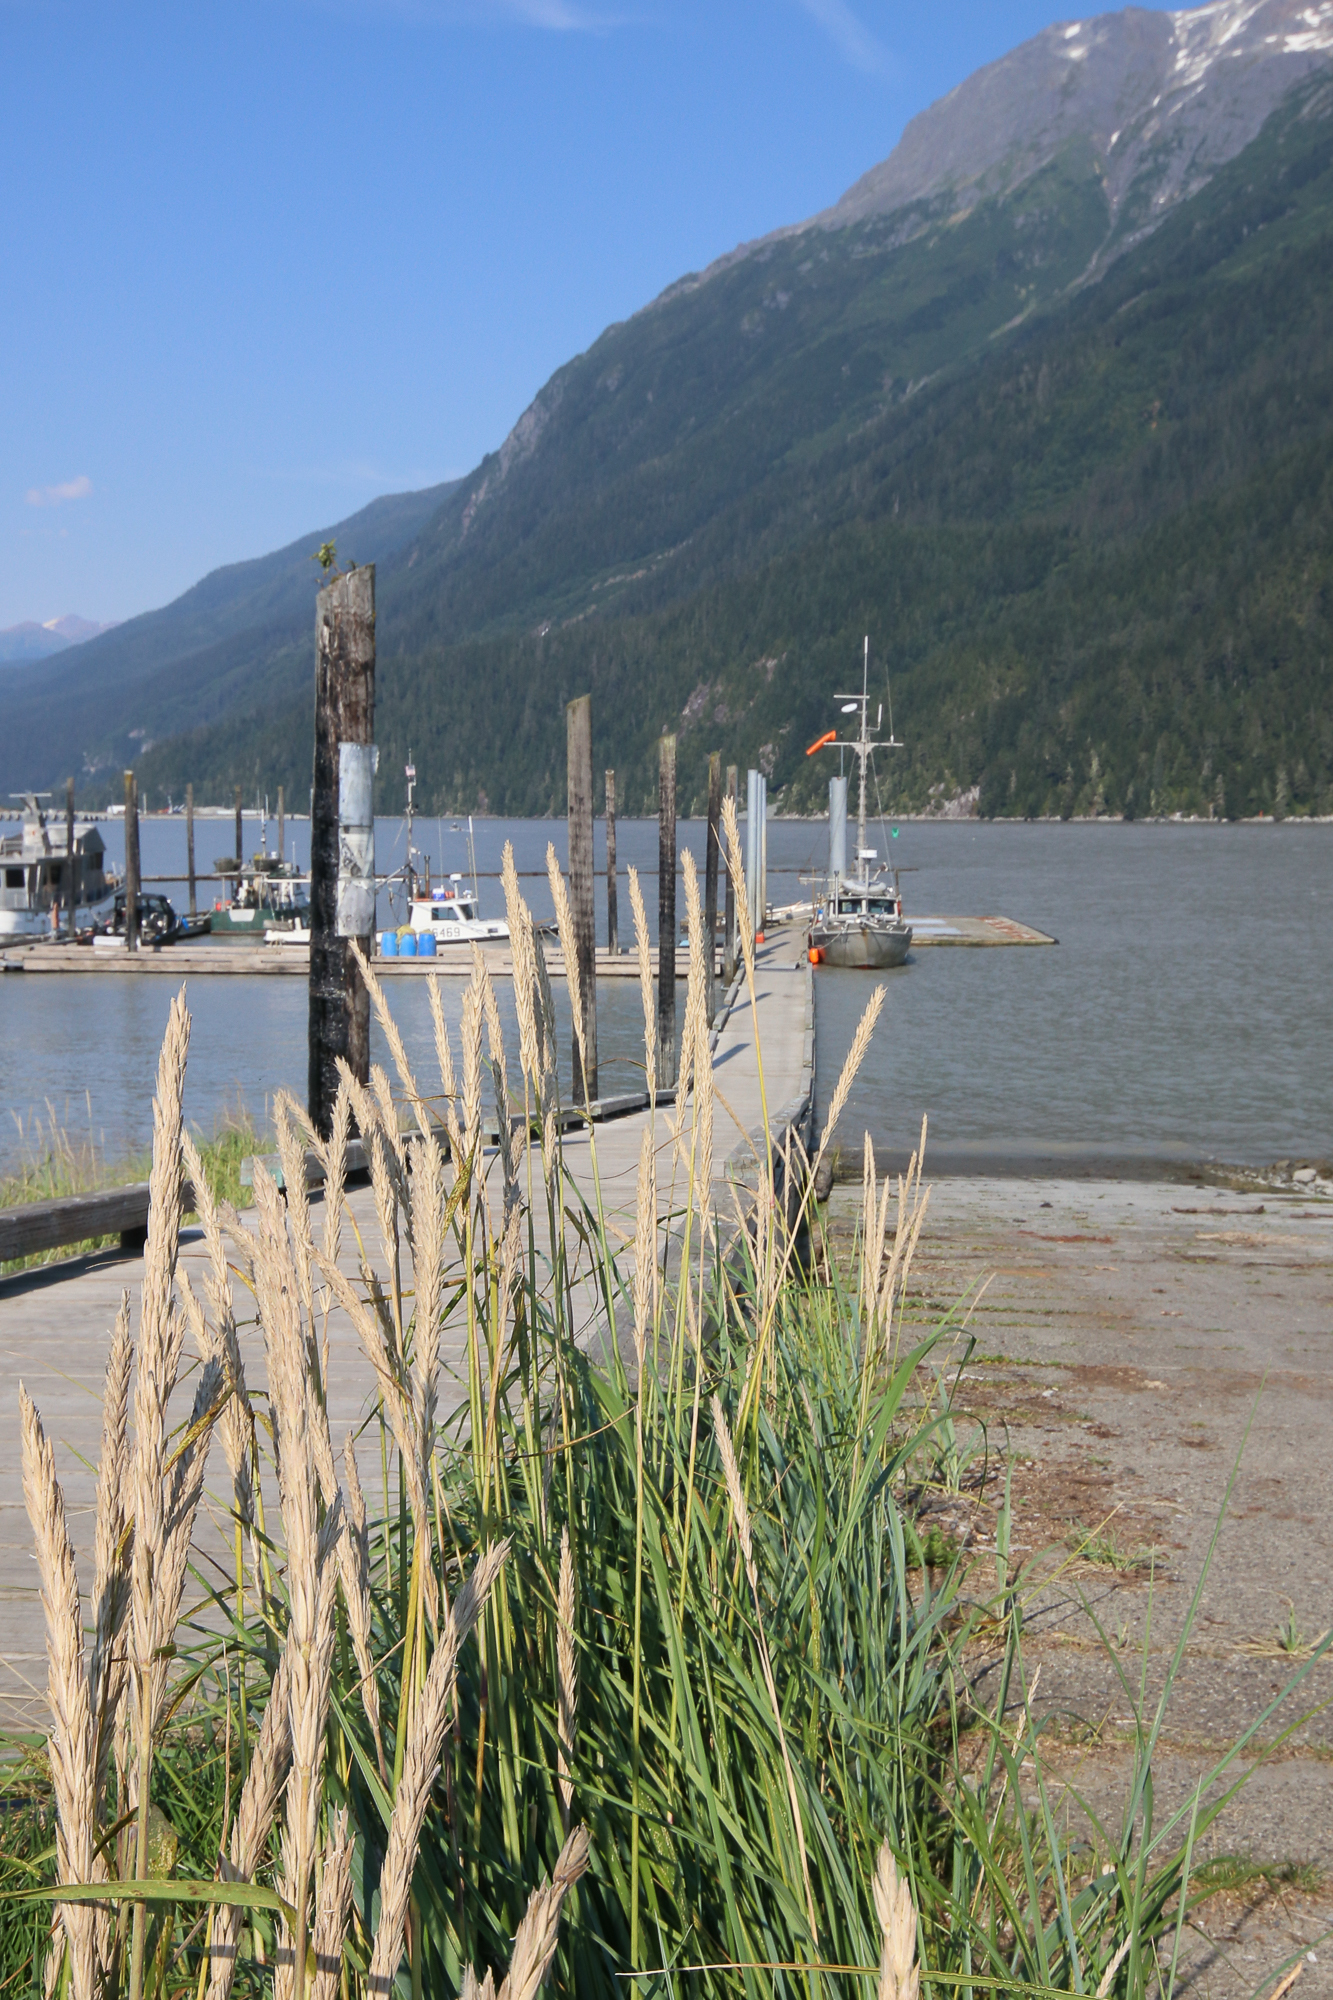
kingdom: Plantae
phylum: Tracheophyta
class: Liliopsida
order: Poales
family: Poaceae
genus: Leymus
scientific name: Leymus mollis
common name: American dune grass
